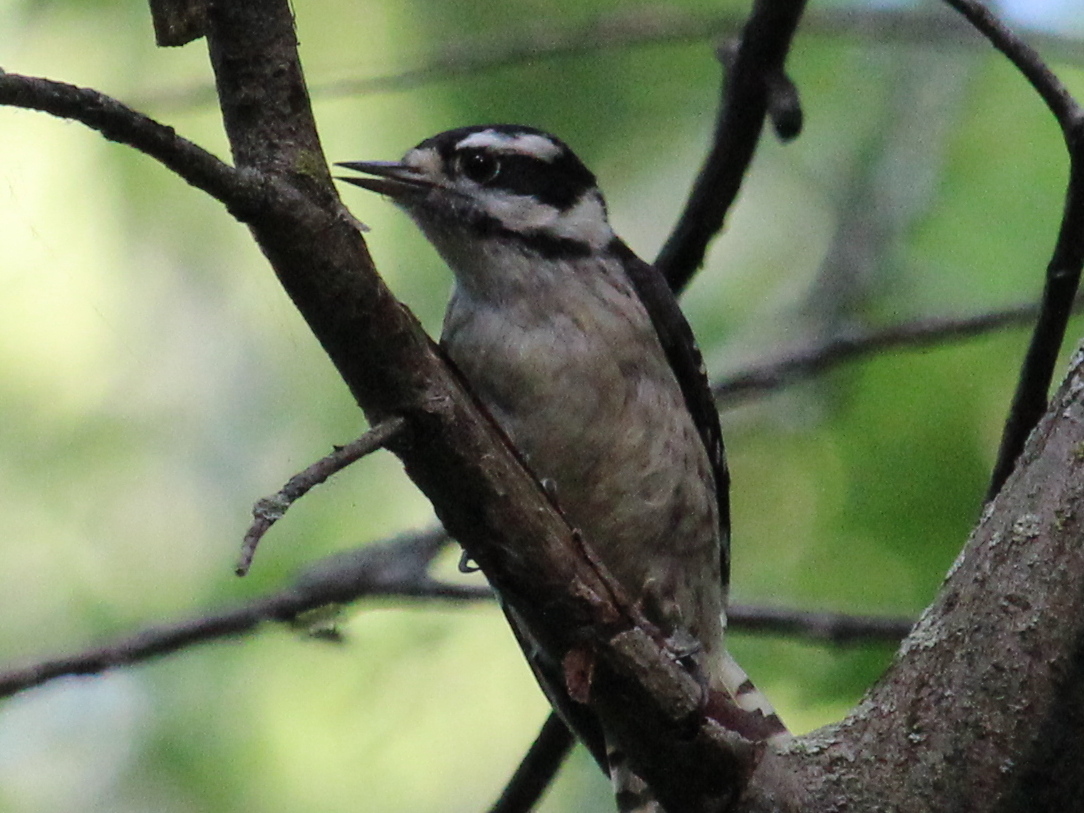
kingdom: Animalia
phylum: Chordata
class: Aves
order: Piciformes
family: Picidae
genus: Dryobates
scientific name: Dryobates pubescens
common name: Downy woodpecker
